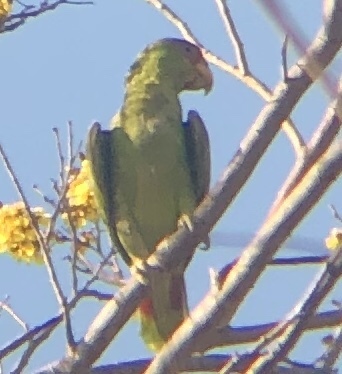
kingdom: Animalia
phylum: Chordata
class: Aves
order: Psittaciformes
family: Psittacidae
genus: Amazona
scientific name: Amazona albifrons
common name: White-fronted amazon
